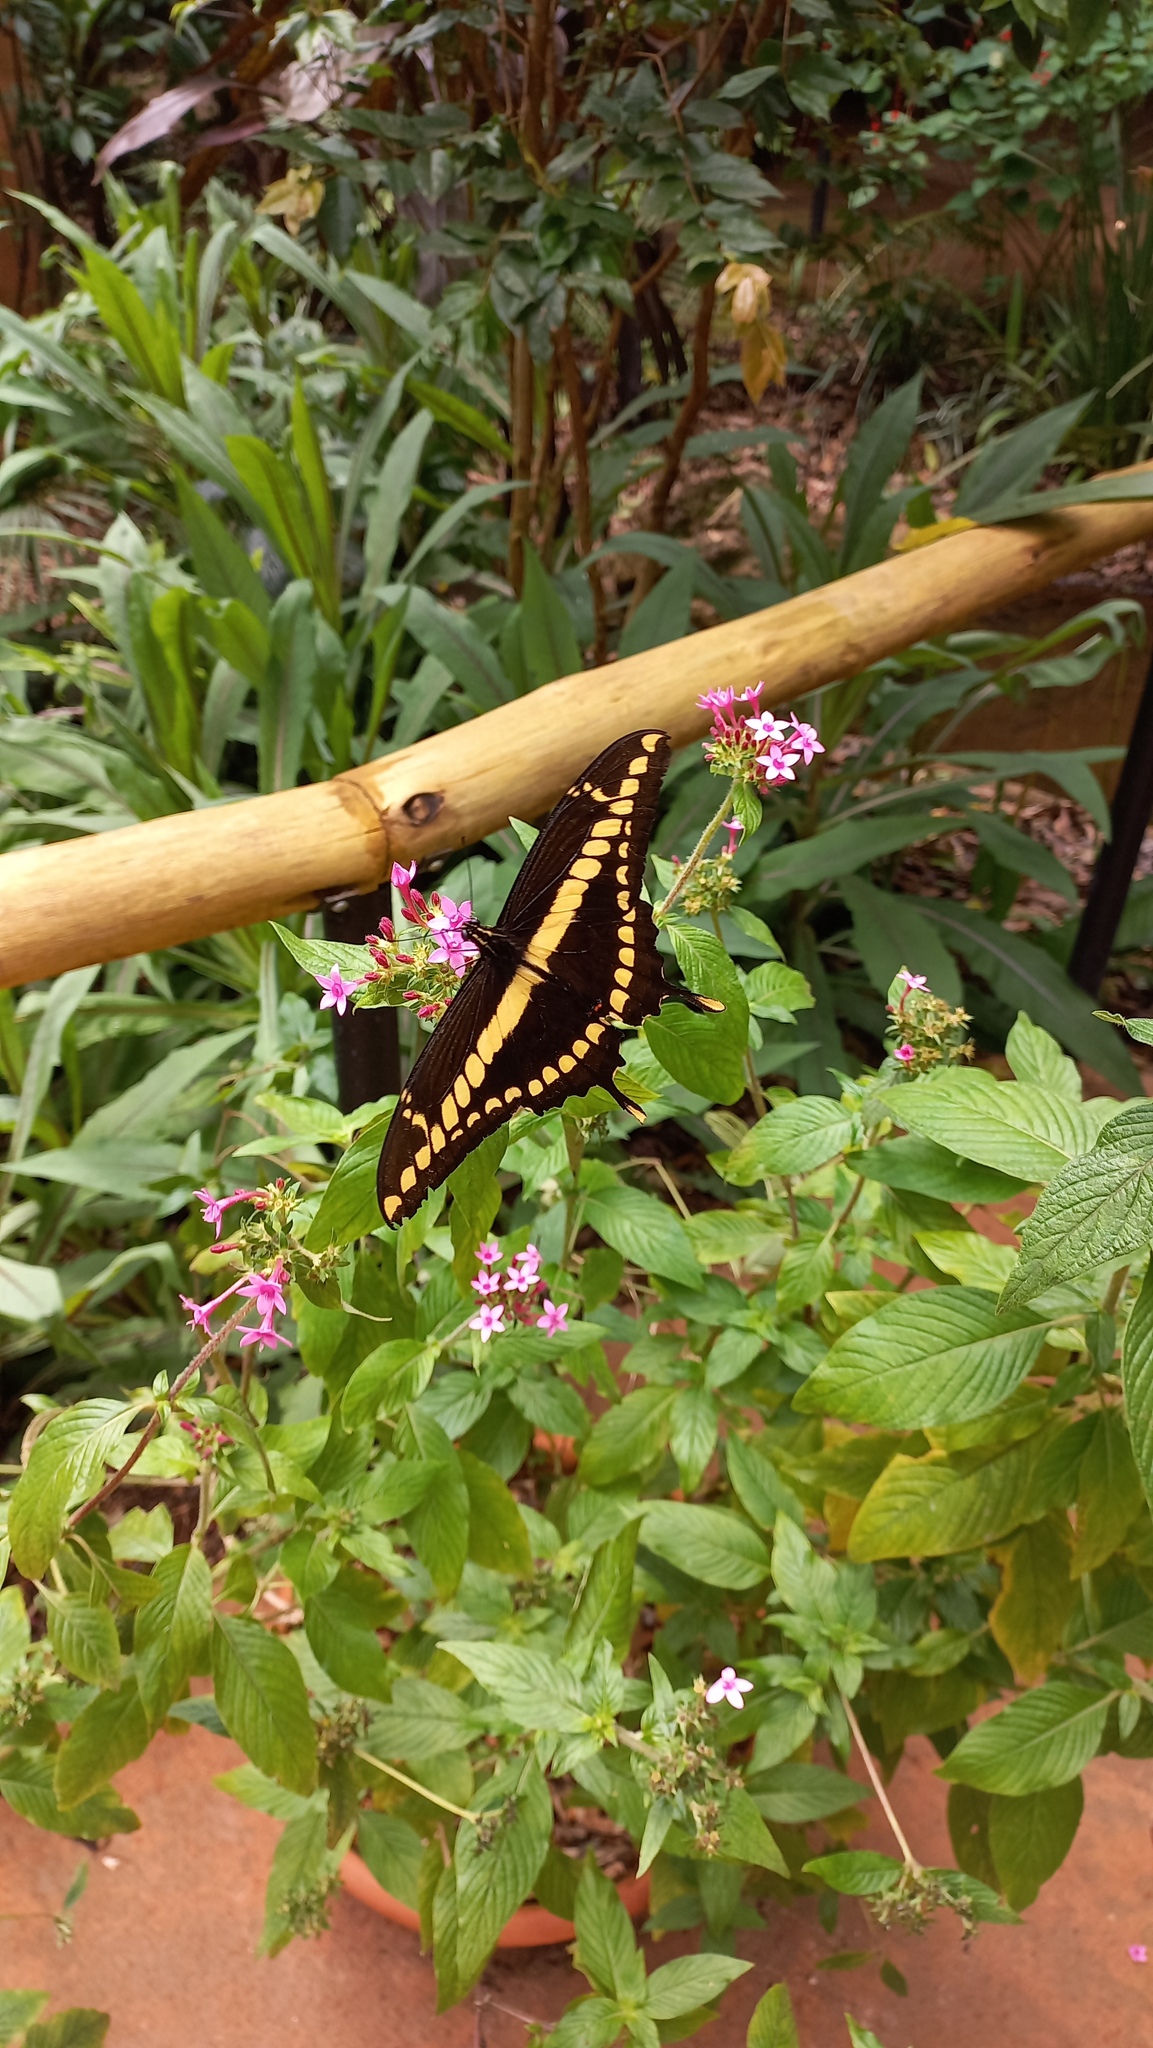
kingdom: Animalia
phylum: Arthropoda
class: Insecta
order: Lepidoptera
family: Papilionidae
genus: Papilio
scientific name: Papilio thoas
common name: King swallowtail
